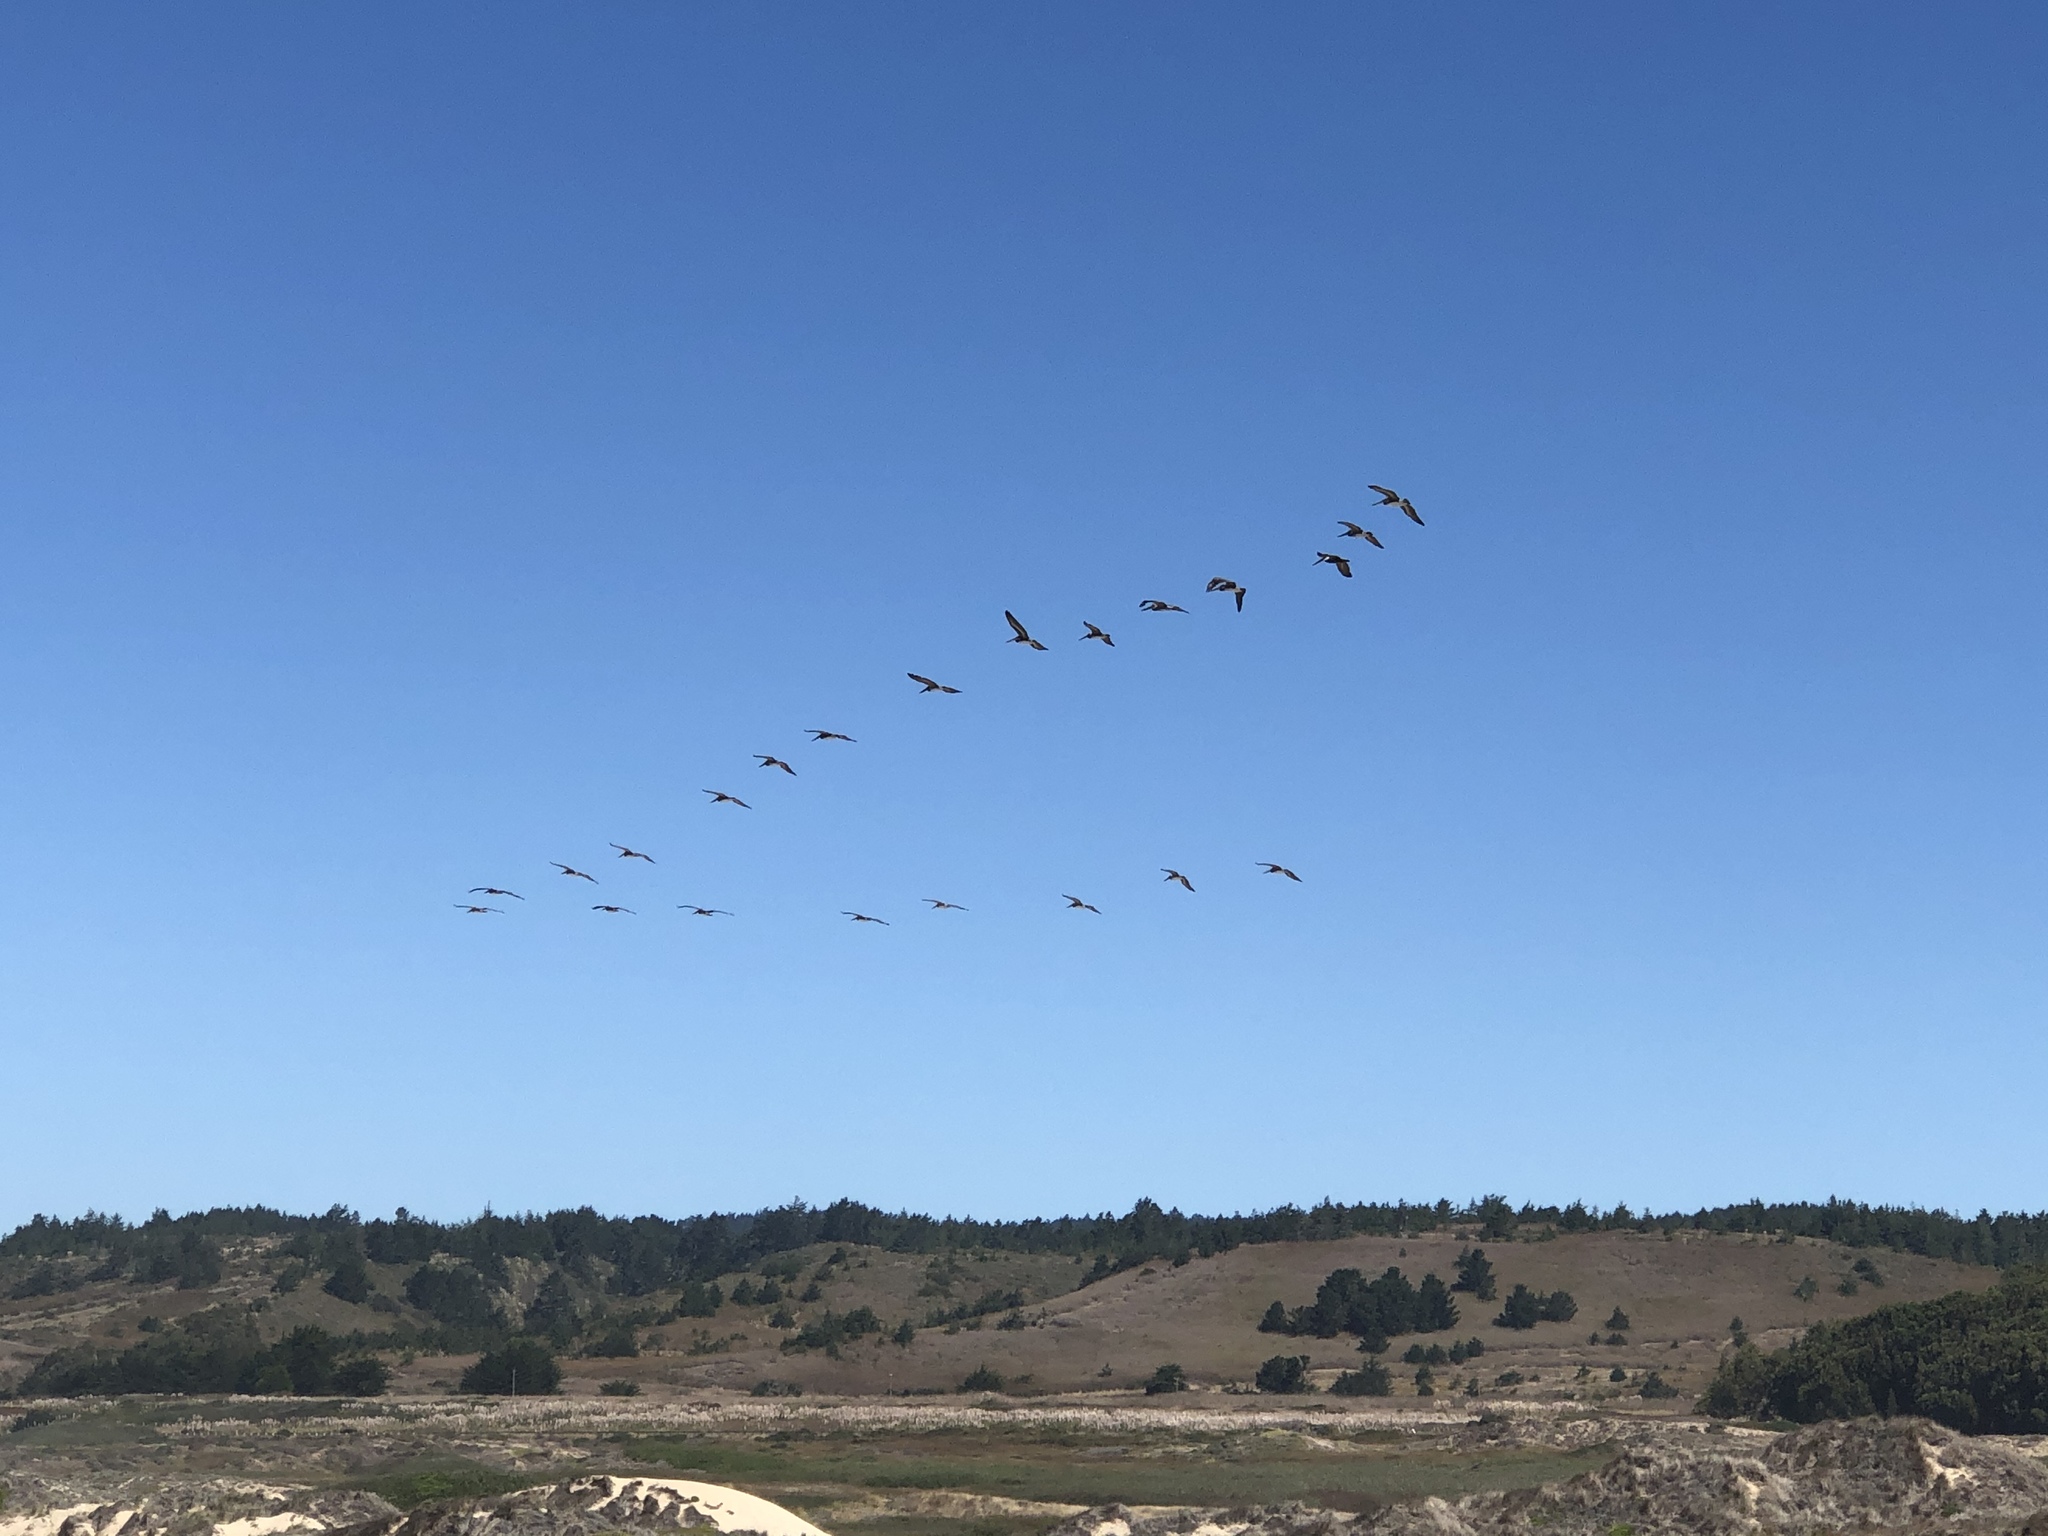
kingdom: Animalia
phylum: Chordata
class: Aves
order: Pelecaniformes
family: Pelecanidae
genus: Pelecanus
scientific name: Pelecanus occidentalis
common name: Brown pelican
